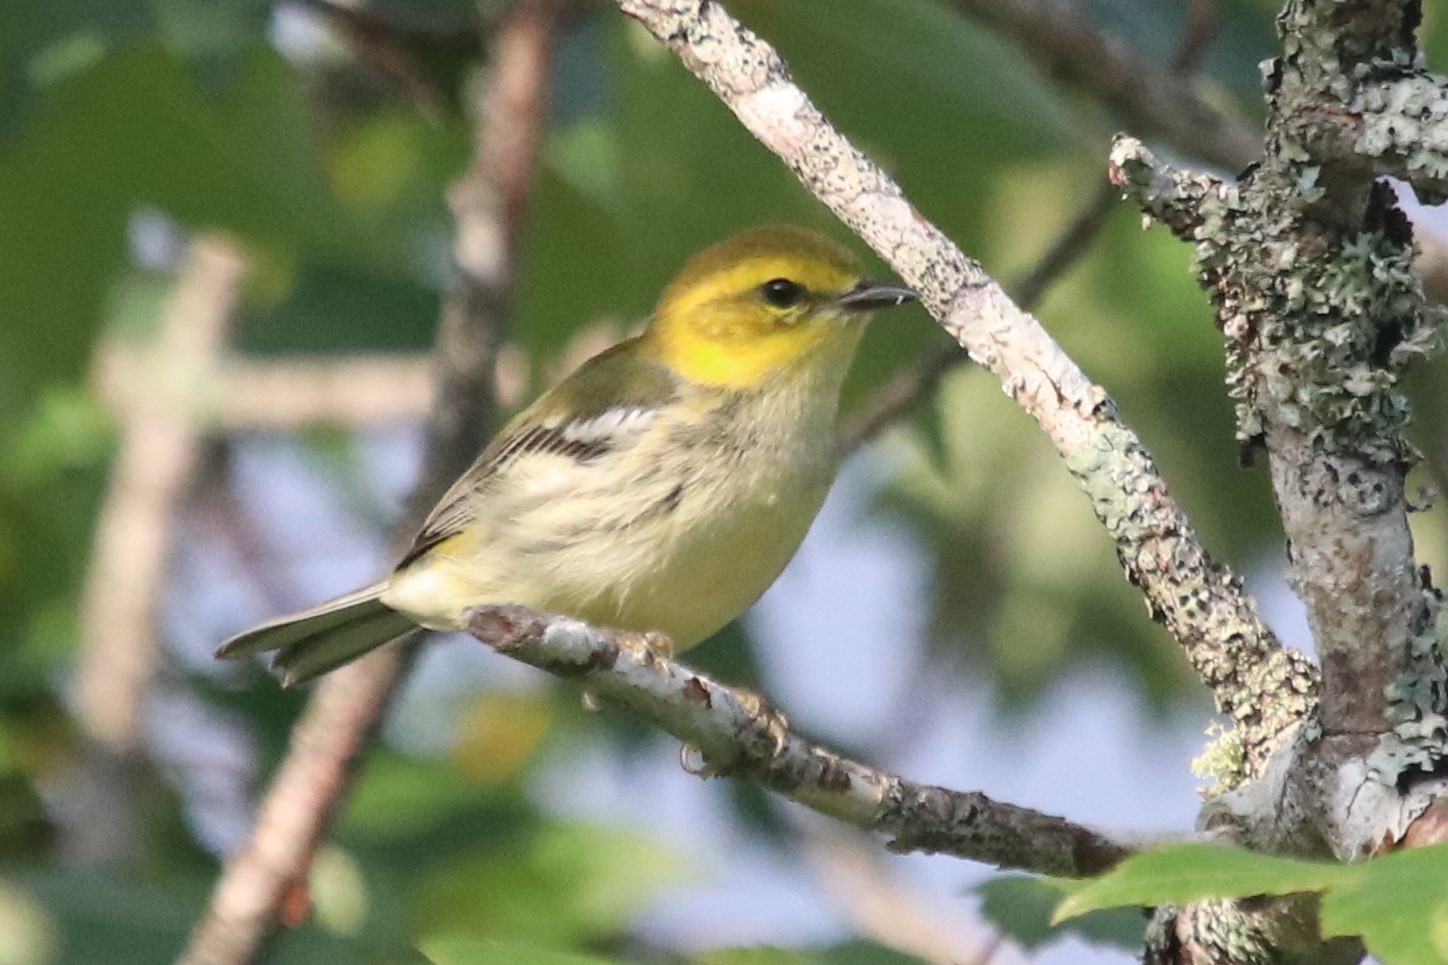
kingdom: Animalia
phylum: Chordata
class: Aves
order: Passeriformes
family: Parulidae
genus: Setophaga
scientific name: Setophaga virens
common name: Black-throated green warbler
